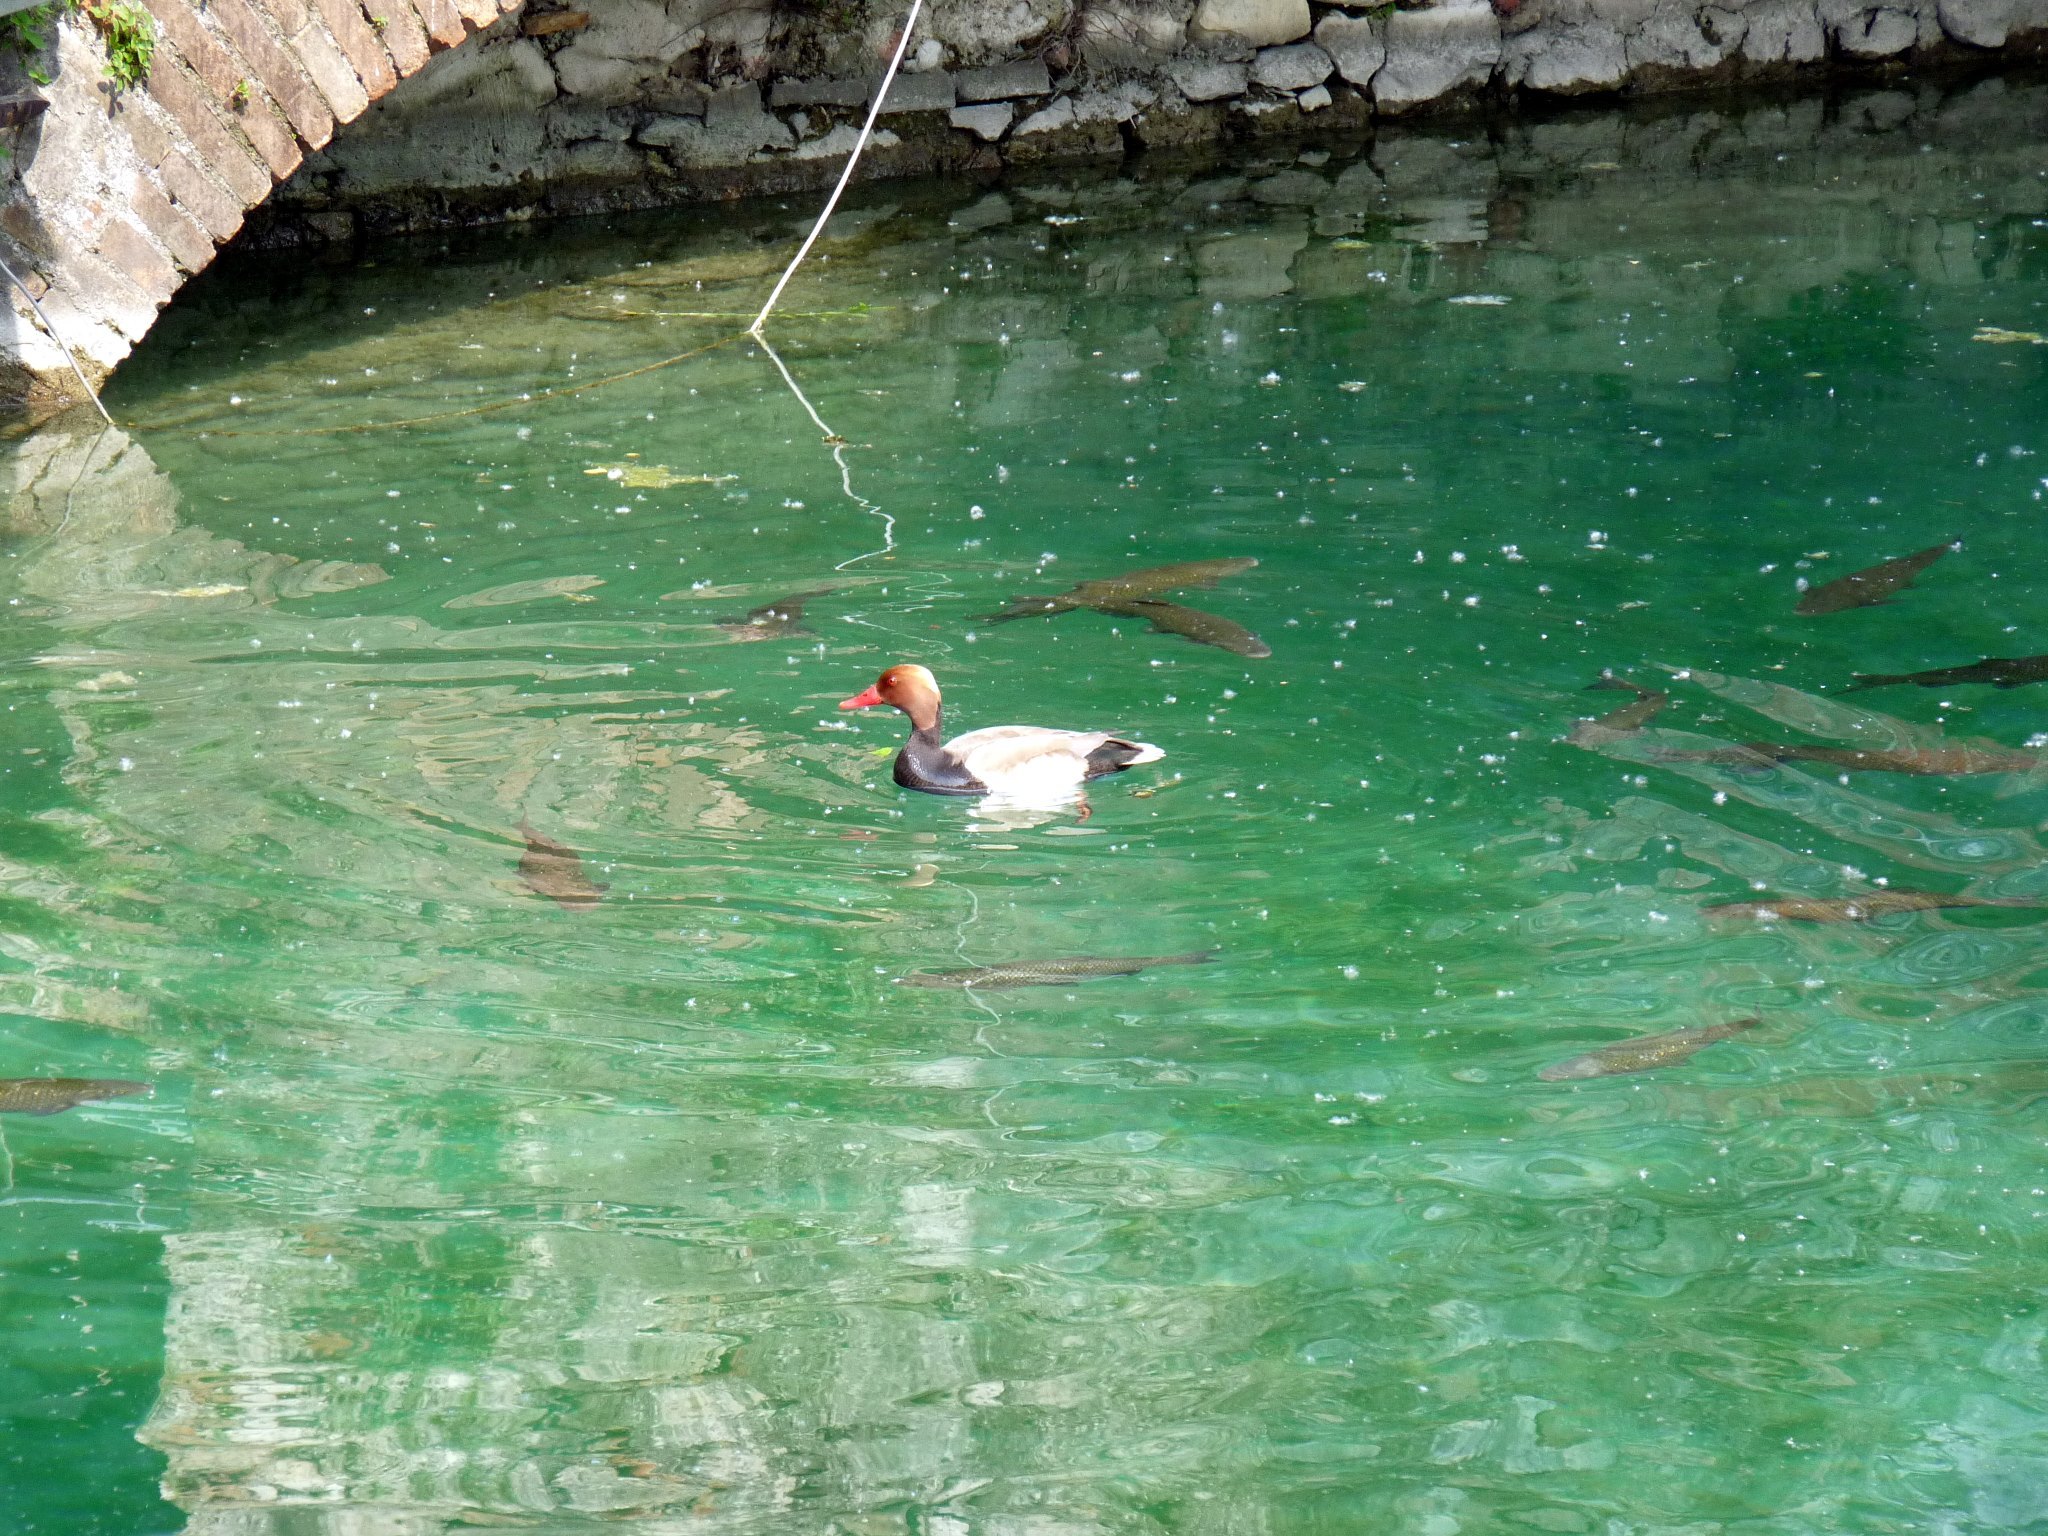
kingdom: Animalia
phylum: Chordata
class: Aves
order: Anseriformes
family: Anatidae
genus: Netta
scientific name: Netta rufina
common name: Red-crested pochard
